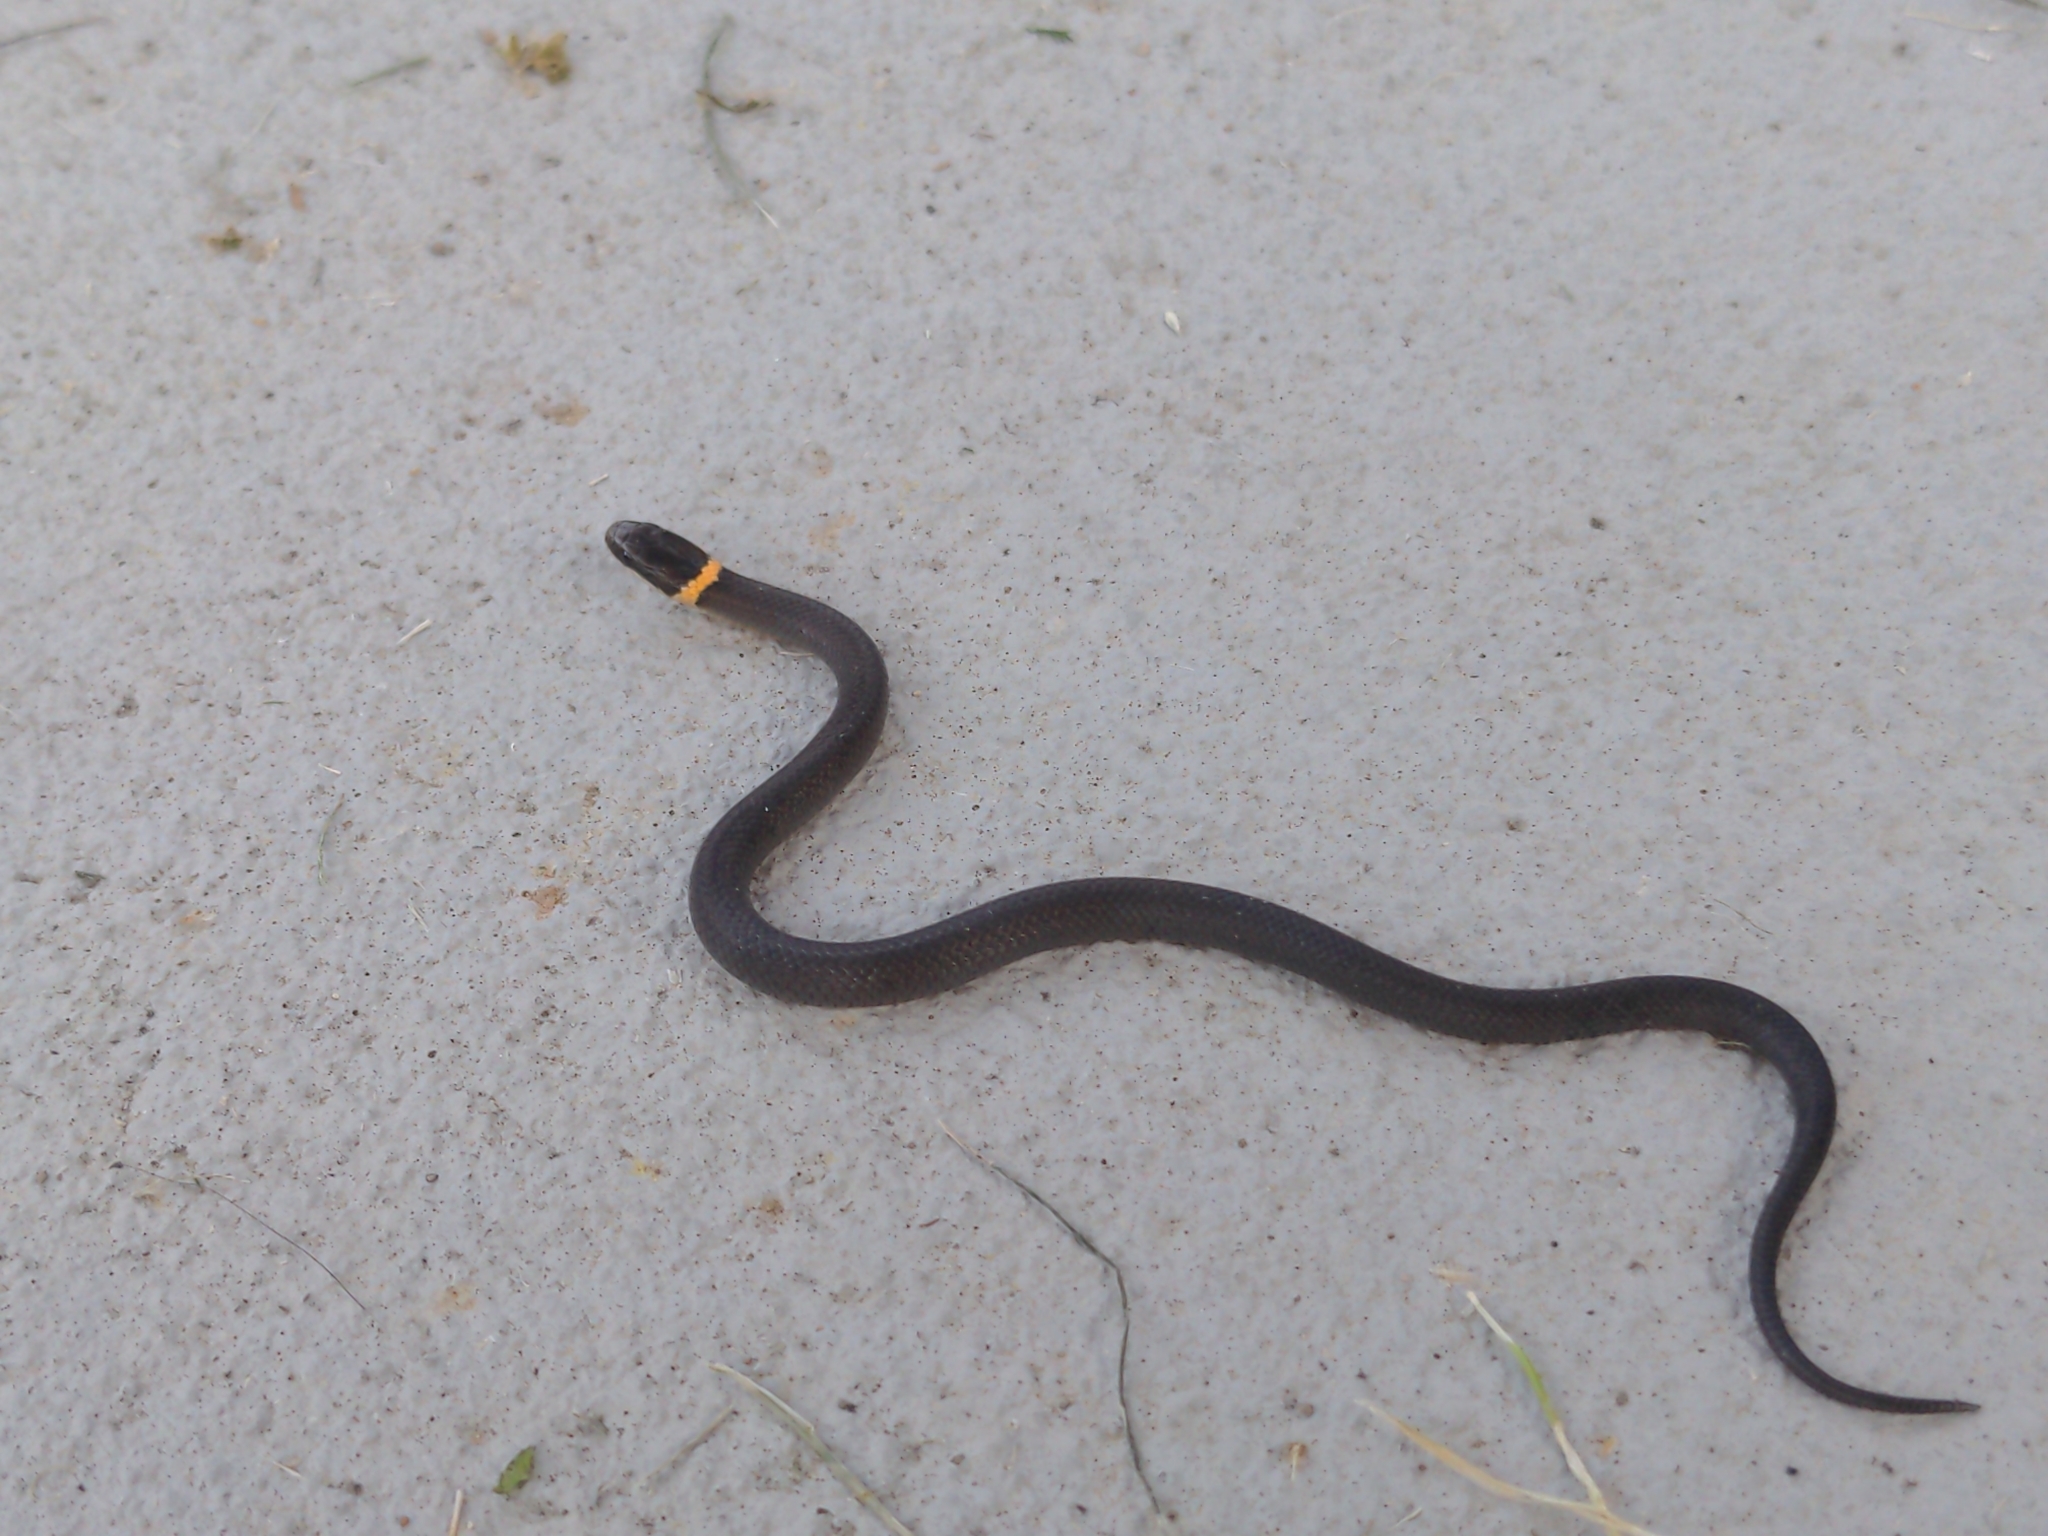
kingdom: Animalia
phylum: Chordata
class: Squamata
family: Colubridae
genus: Diadophis
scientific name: Diadophis punctatus
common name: Ringneck snake
